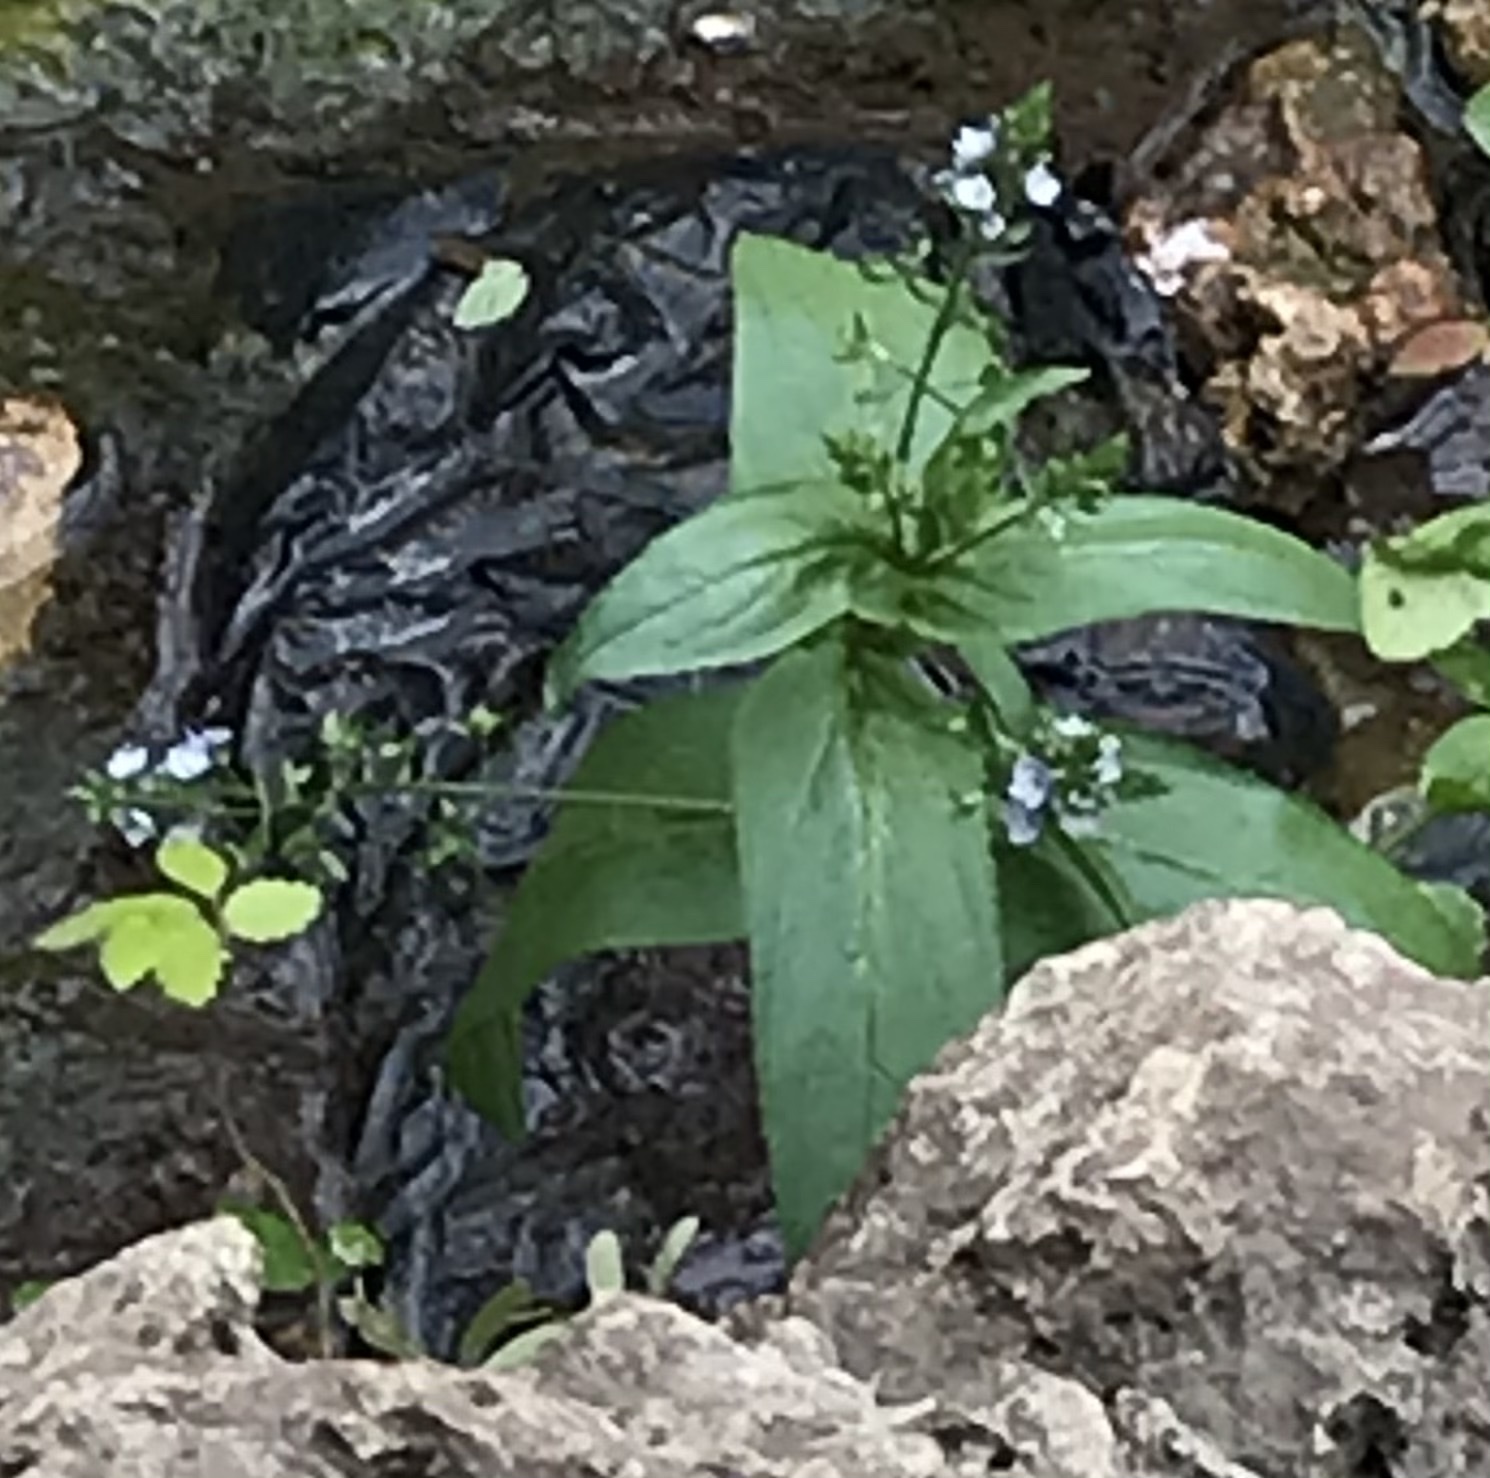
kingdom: Plantae
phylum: Tracheophyta
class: Magnoliopsida
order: Lamiales
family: Plantaginaceae
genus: Veronica
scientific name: Veronica anagallis-aquatica
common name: Water speedwell
